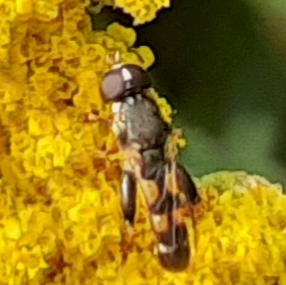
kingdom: Animalia
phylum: Arthropoda
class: Insecta
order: Diptera
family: Syrphidae
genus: Syritta
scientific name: Syritta pipiens
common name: Hover fly
